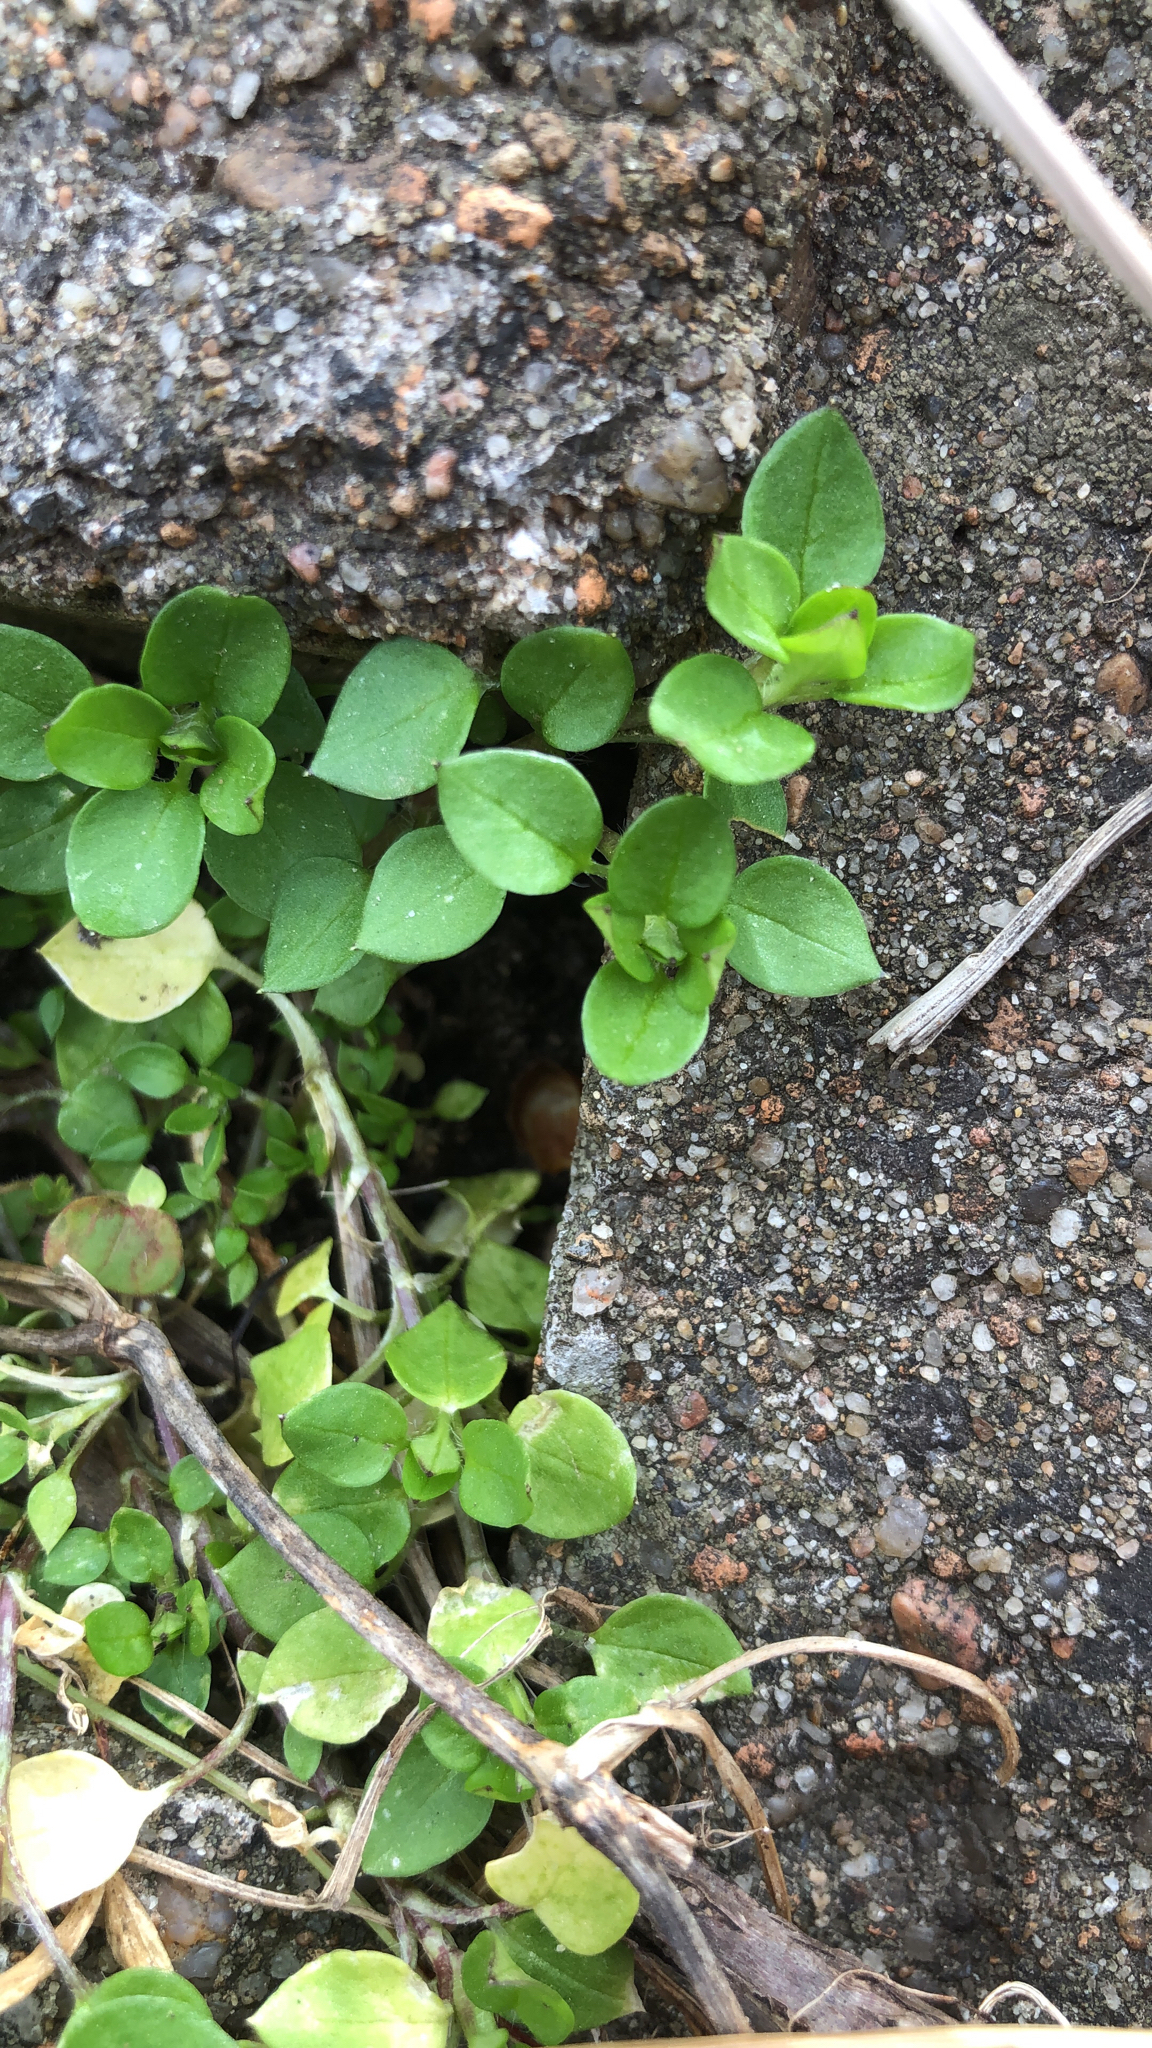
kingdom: Plantae
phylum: Tracheophyta
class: Magnoliopsida
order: Caryophyllales
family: Caryophyllaceae
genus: Stellaria
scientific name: Stellaria media
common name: Common chickweed
